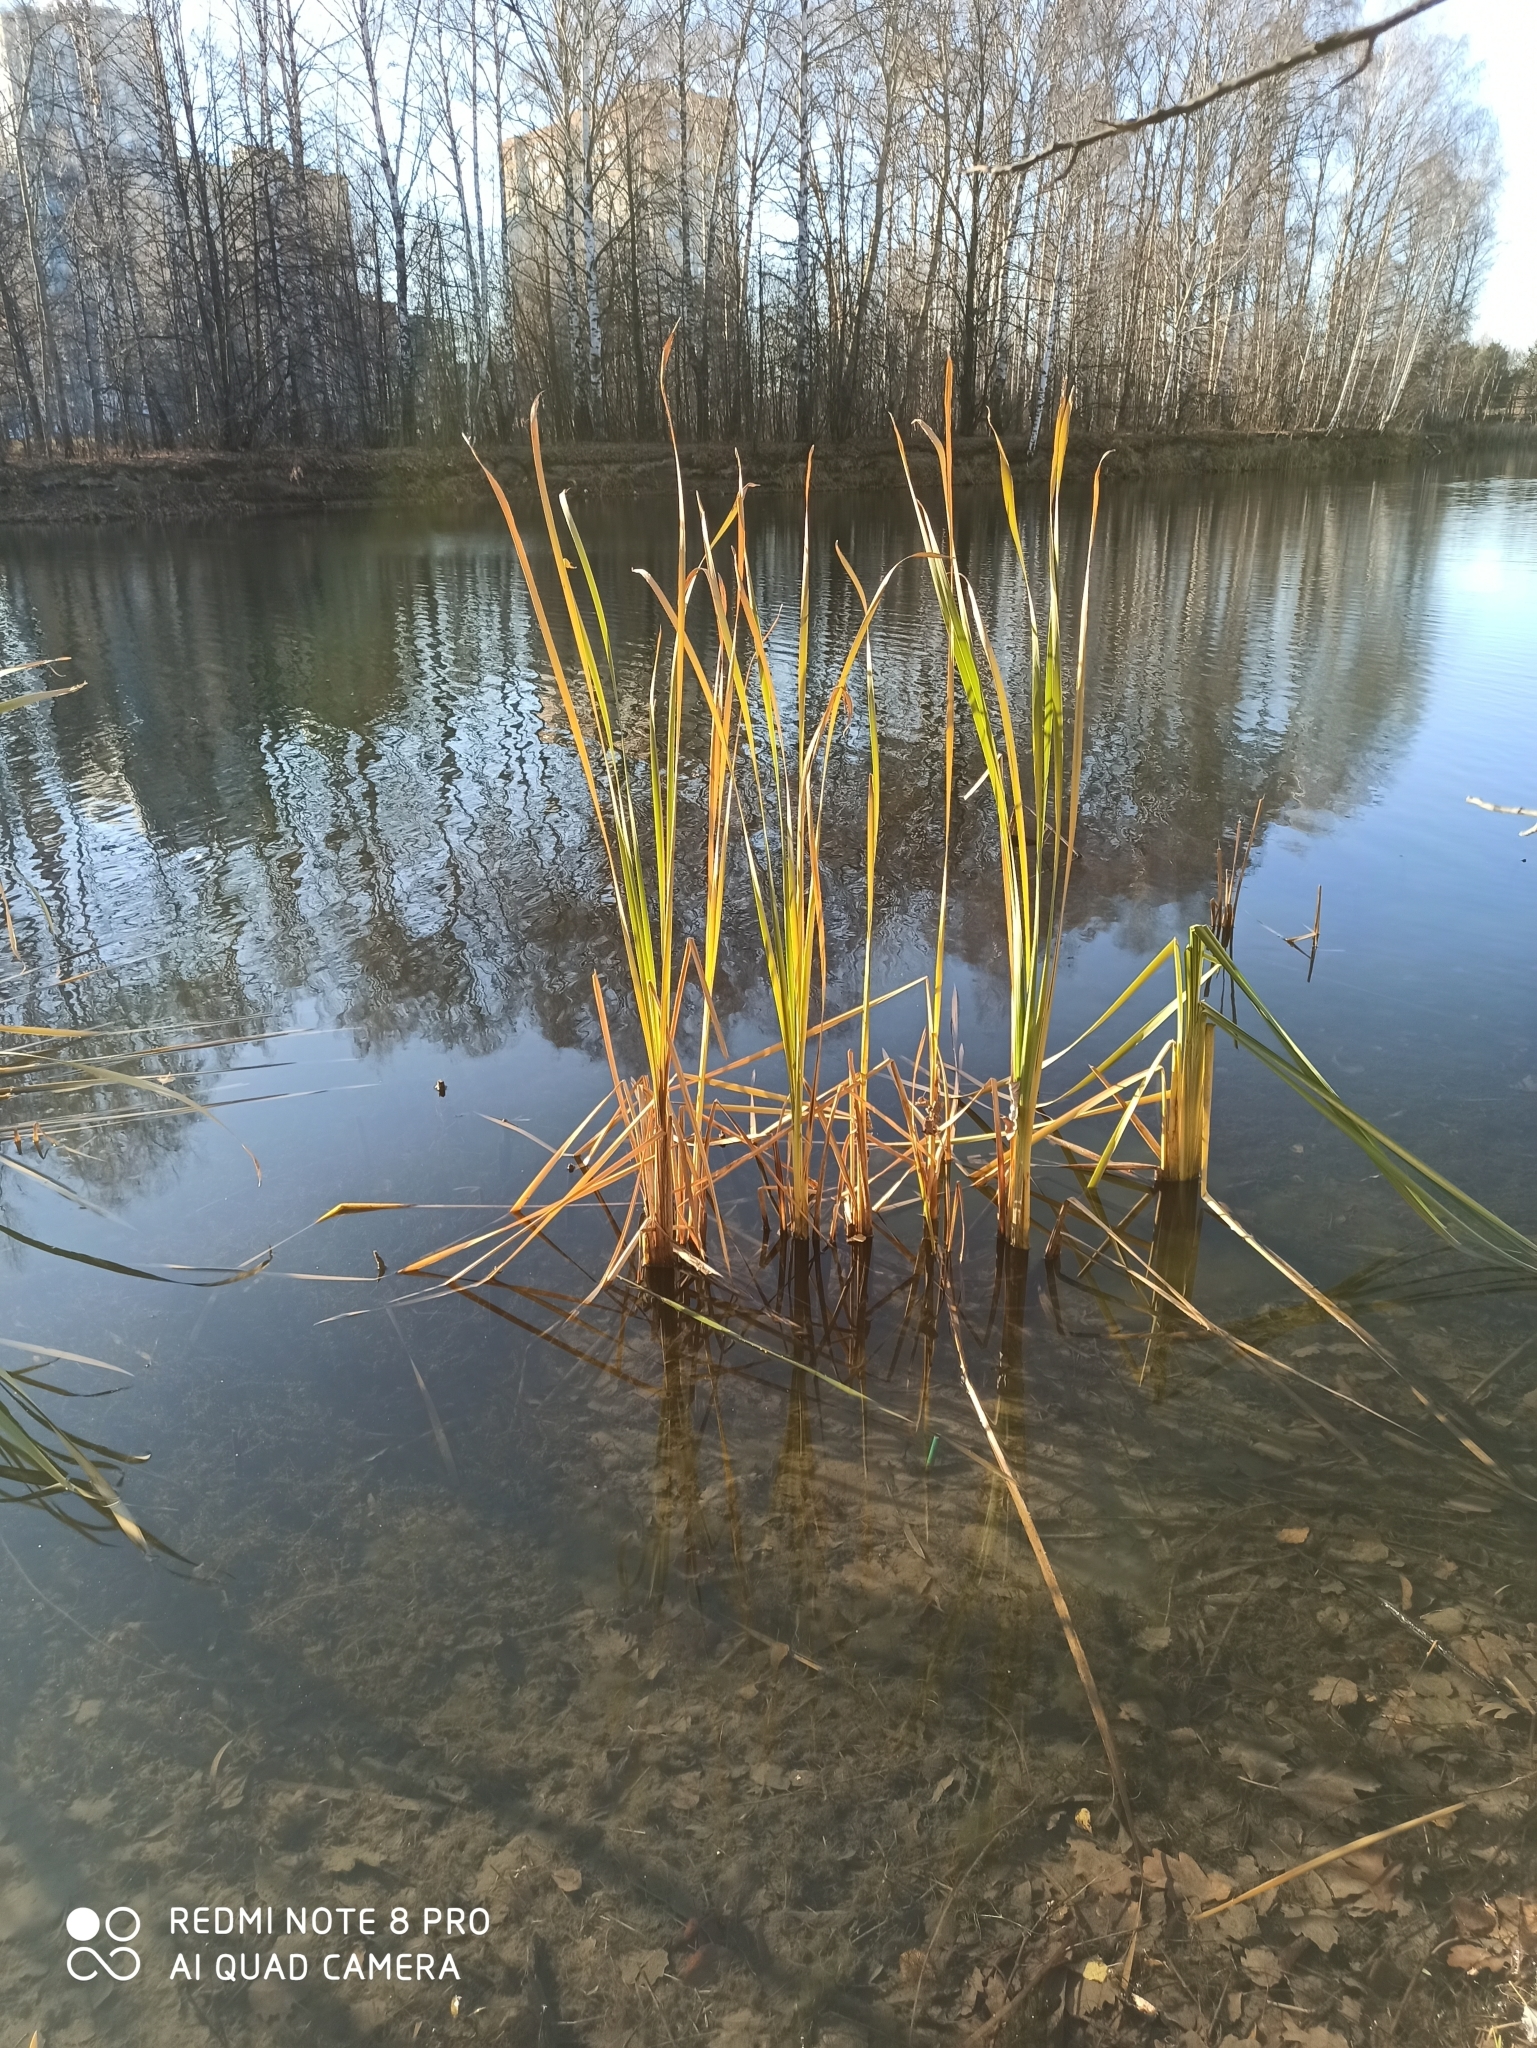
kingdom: Plantae
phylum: Tracheophyta
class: Liliopsida
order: Poales
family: Typhaceae
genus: Typha
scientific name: Typha latifolia
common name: Broadleaf cattail
